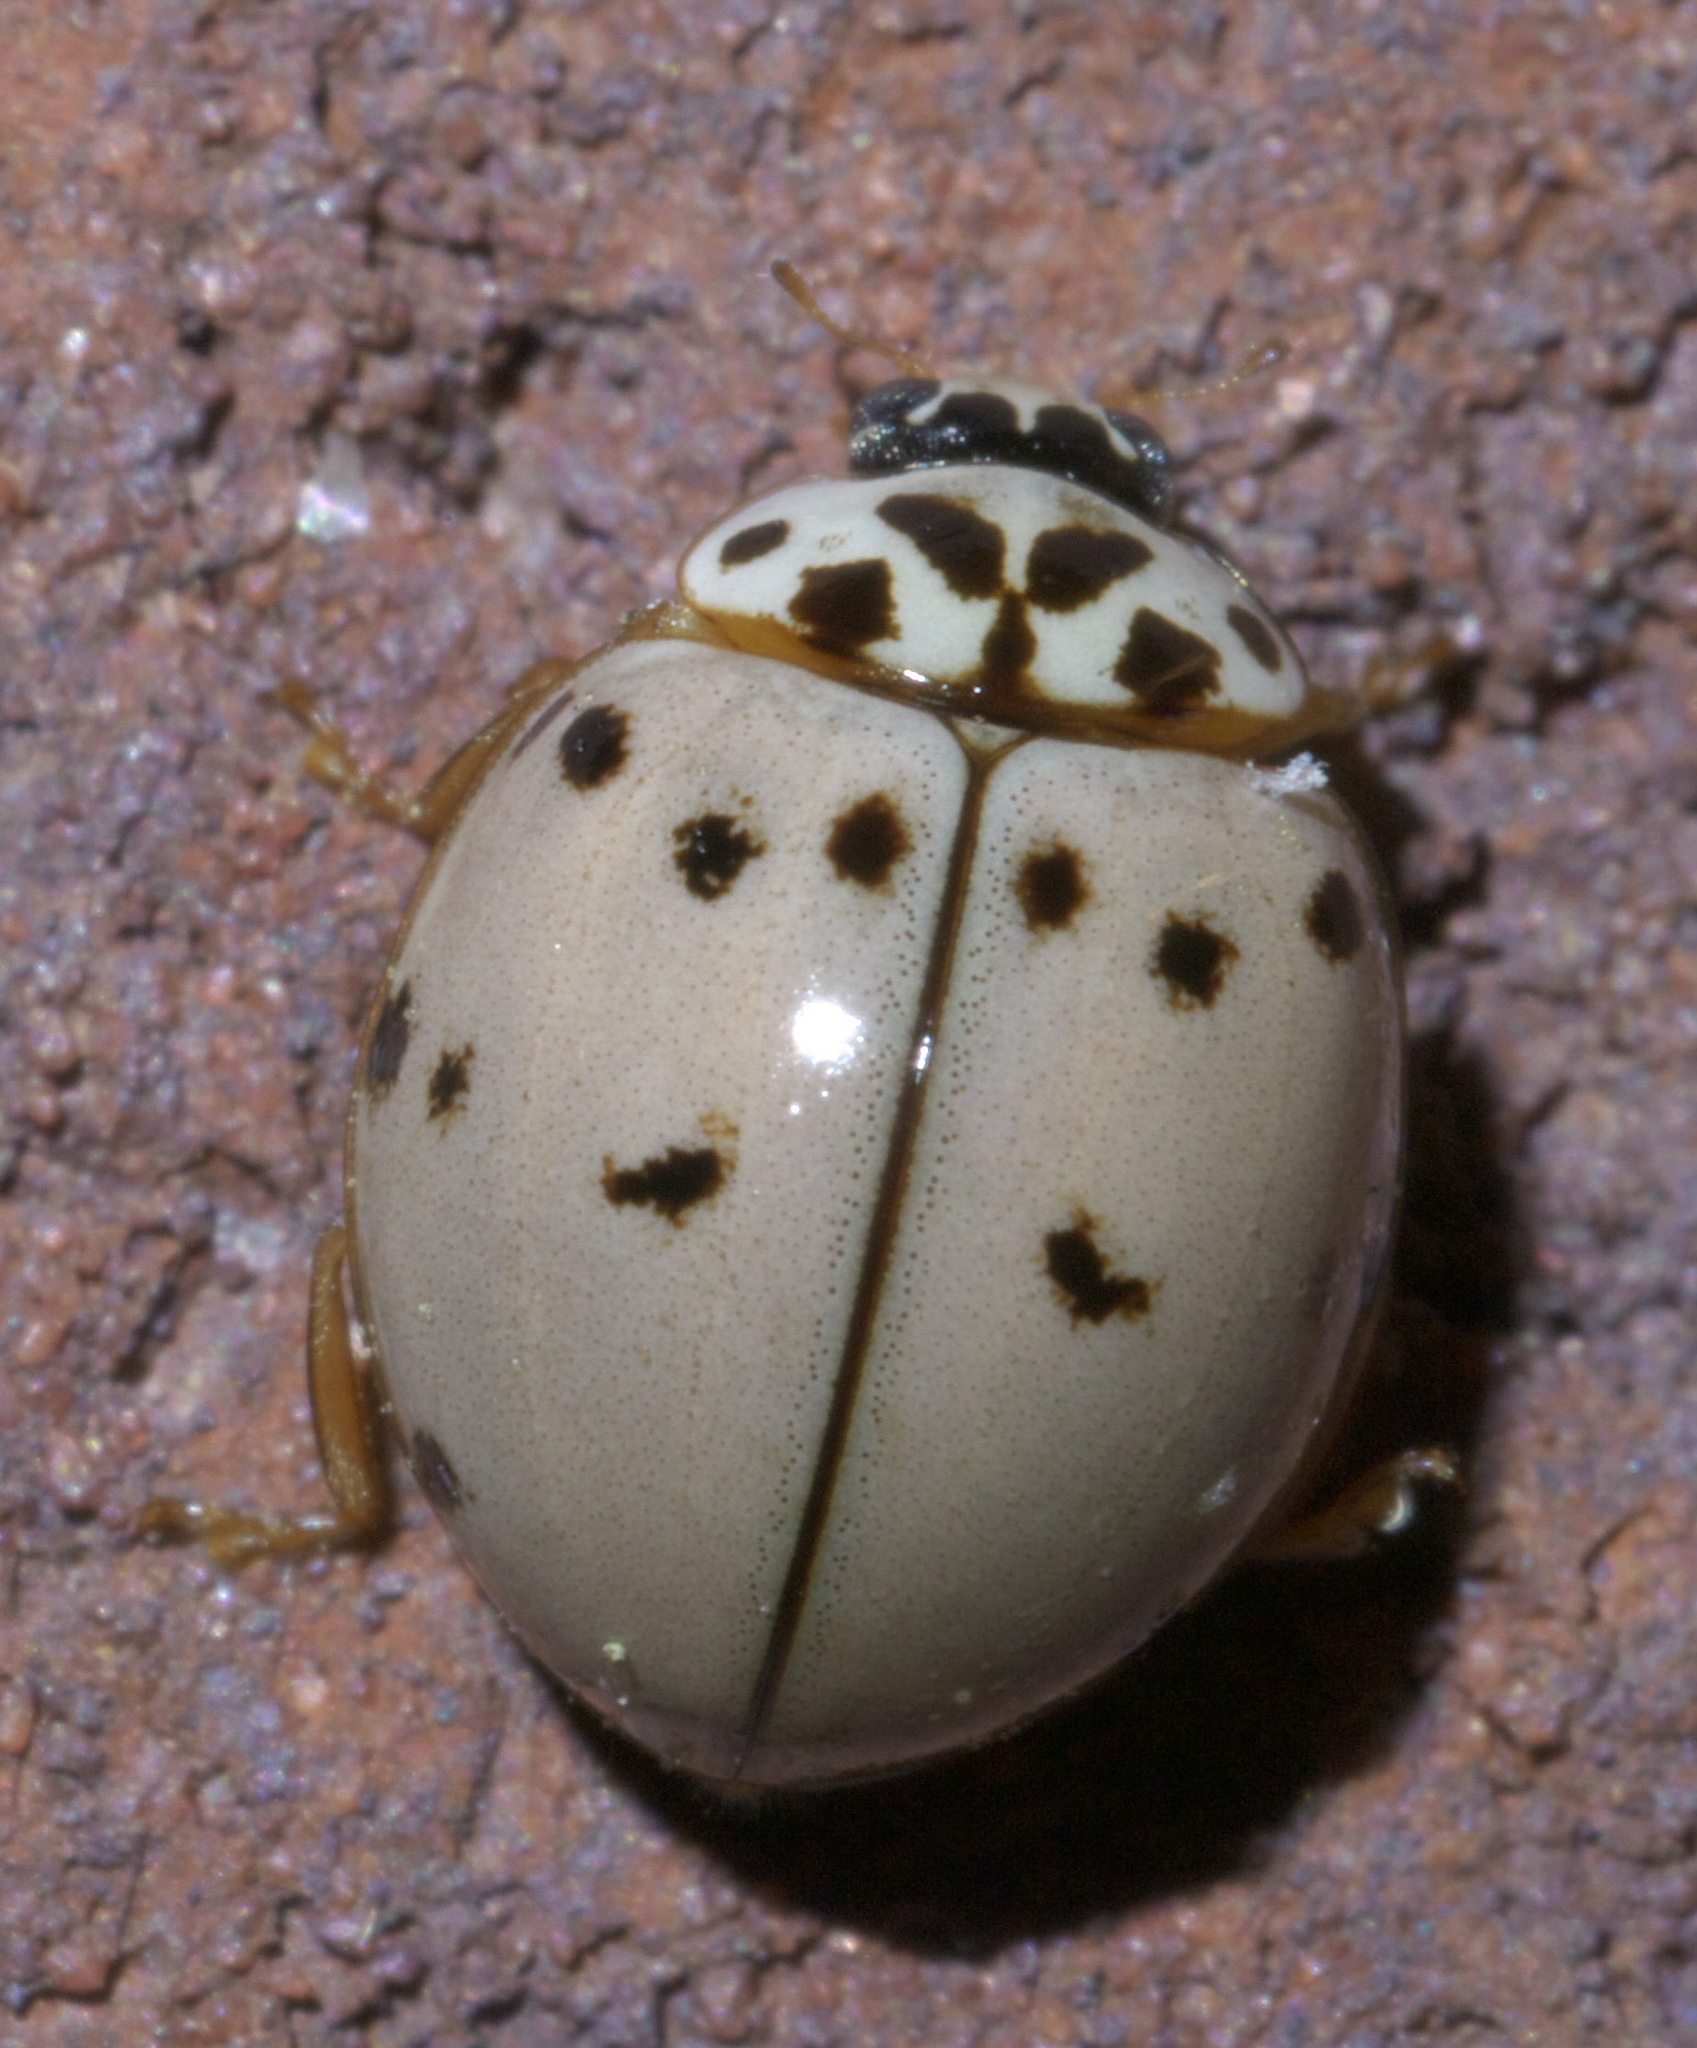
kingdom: Animalia
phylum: Arthropoda
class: Insecta
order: Coleoptera
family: Coccinellidae
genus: Olla
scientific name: Olla v-nigrum
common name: Ashy gray lady beetle
